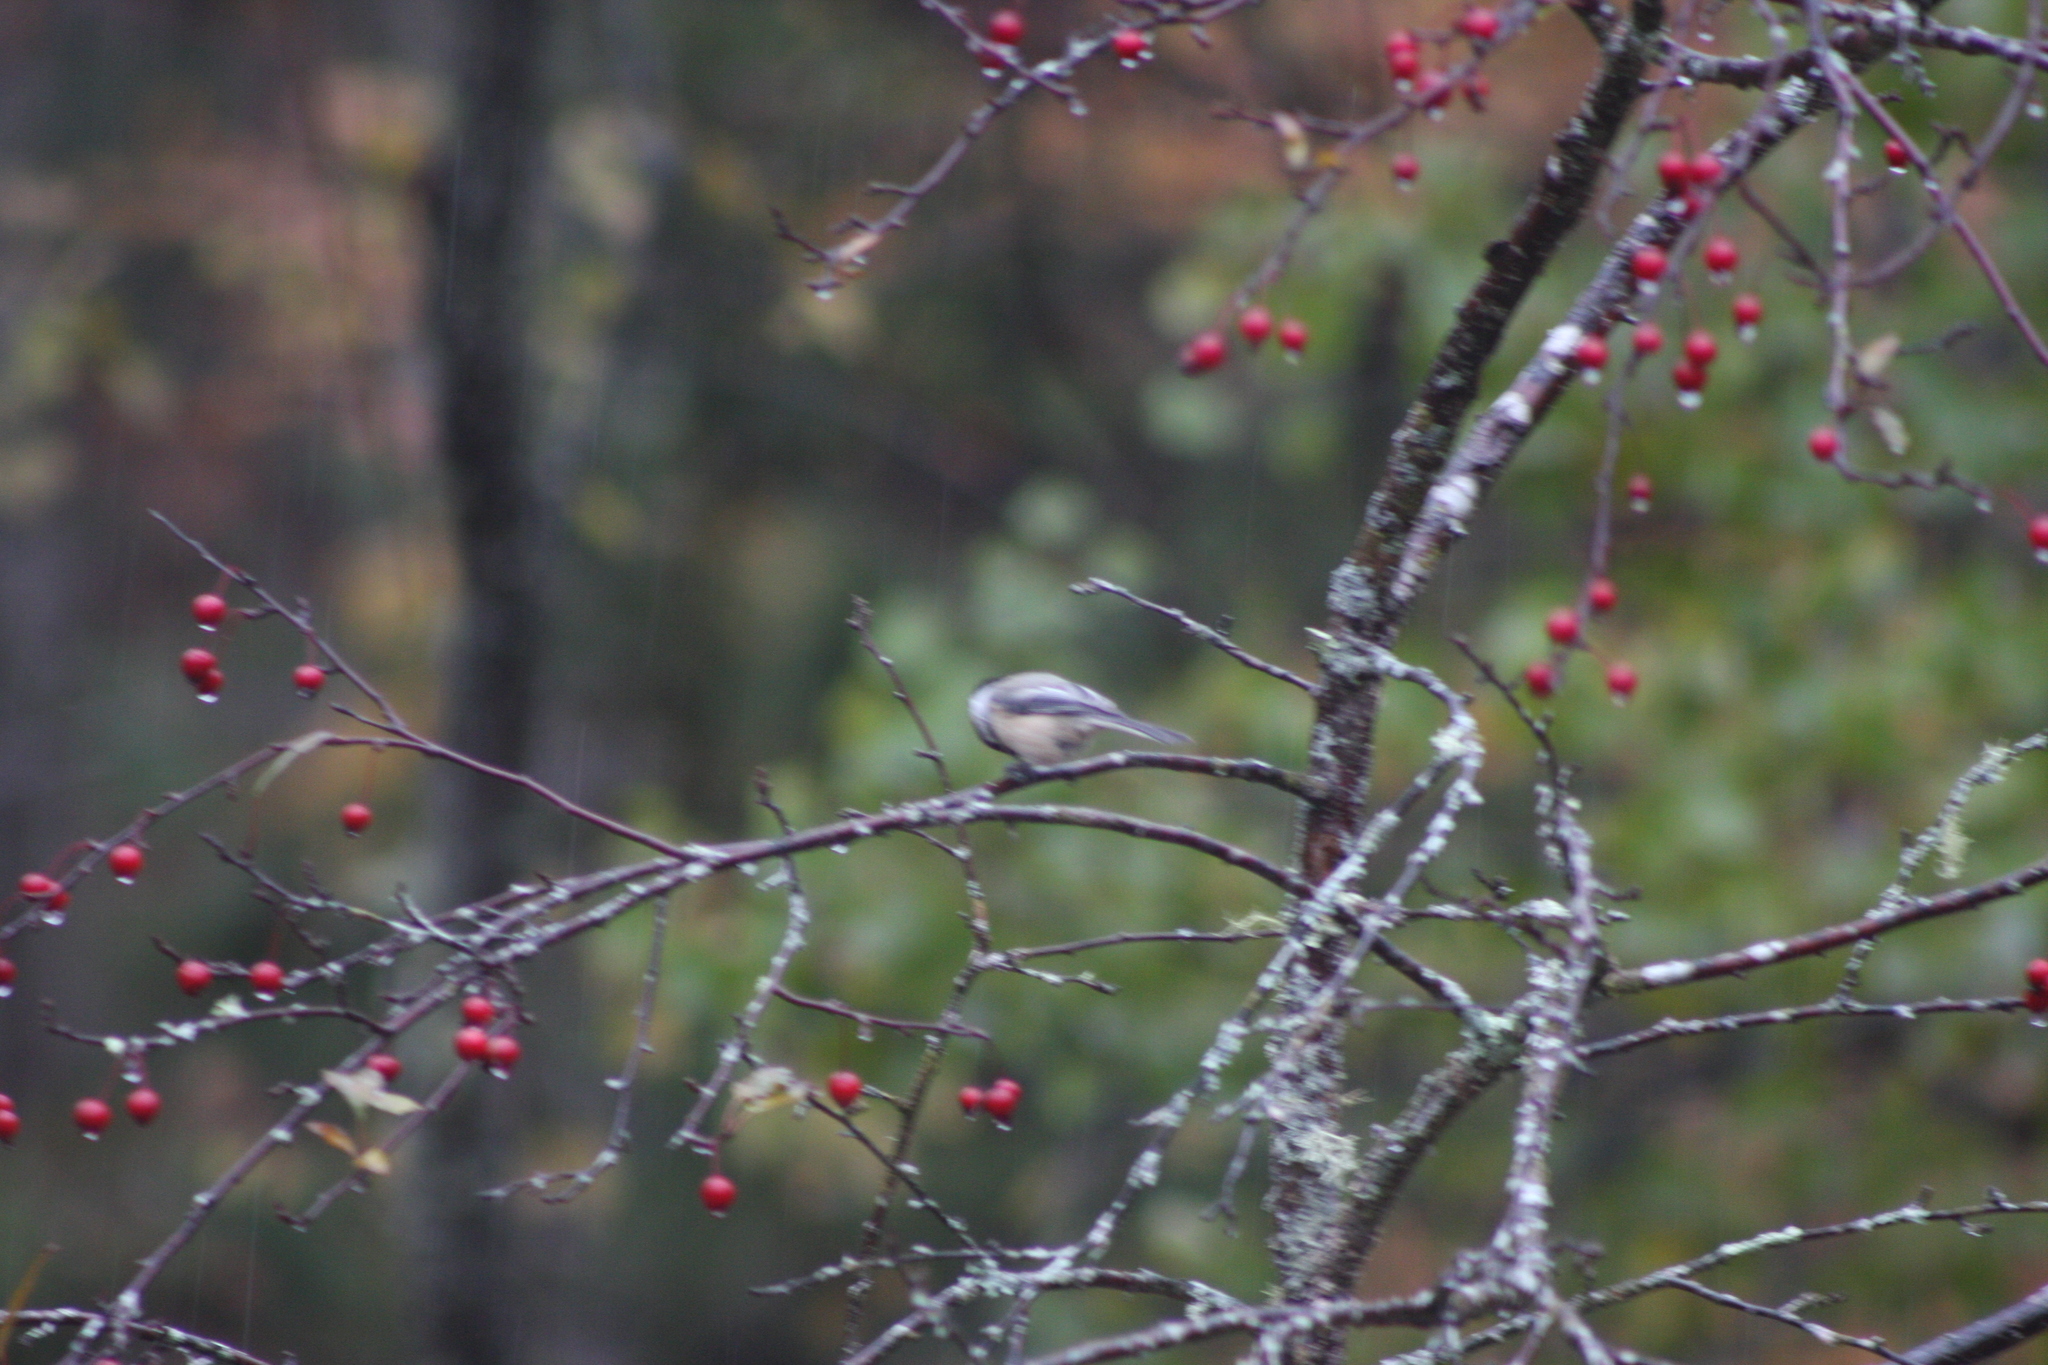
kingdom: Animalia
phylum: Chordata
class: Aves
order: Passeriformes
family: Paridae
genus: Poecile
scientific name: Poecile atricapillus
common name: Black-capped chickadee
